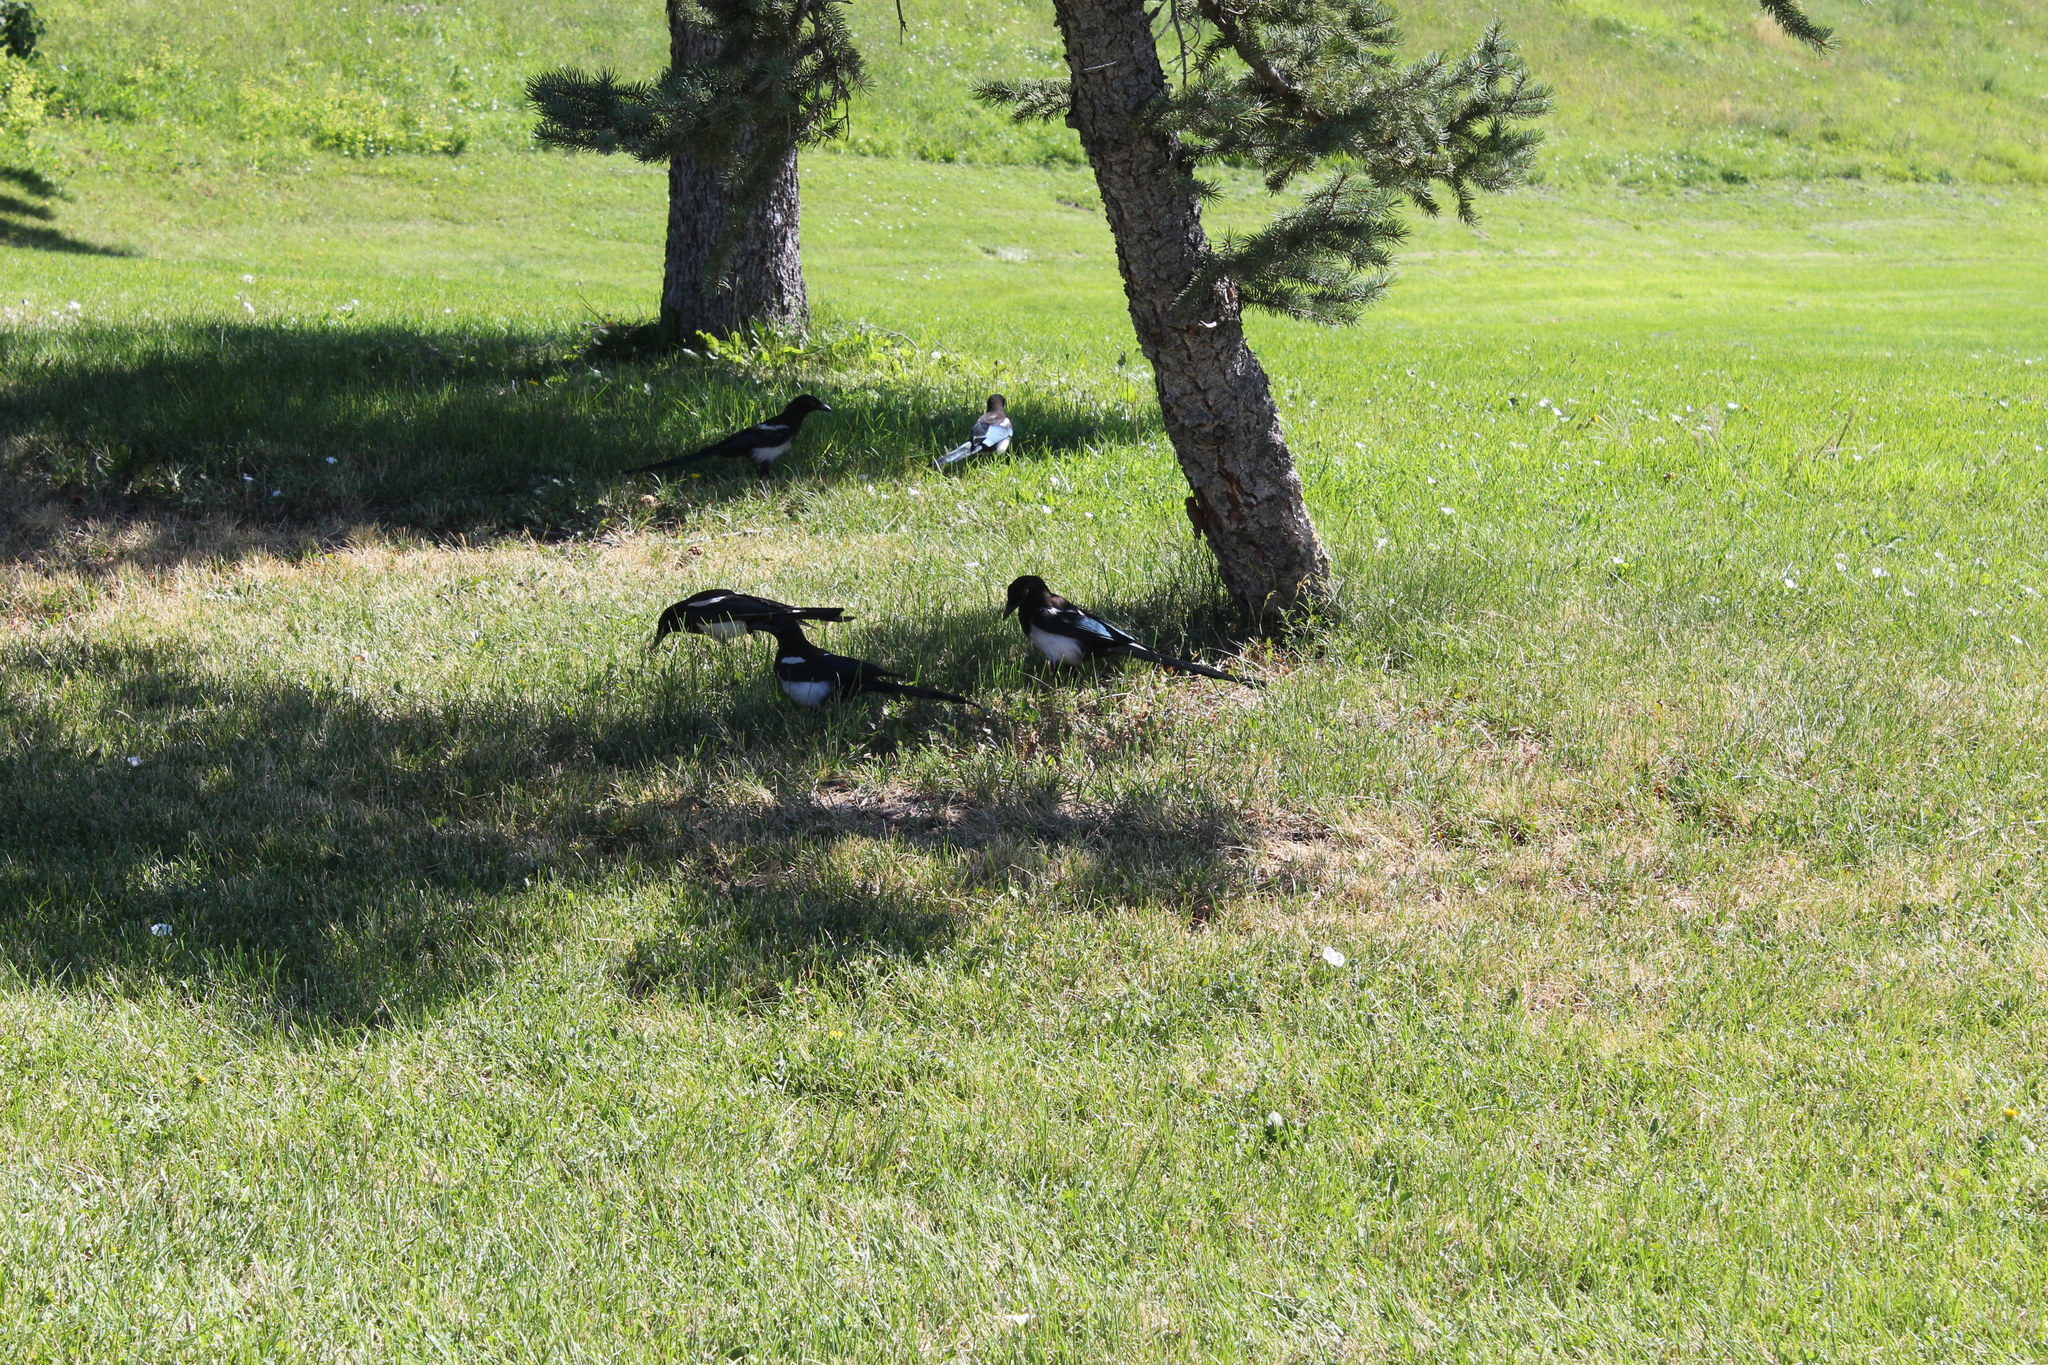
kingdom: Animalia
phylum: Chordata
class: Aves
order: Passeriformes
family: Corvidae
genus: Pica
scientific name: Pica hudsonia
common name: Black-billed magpie
